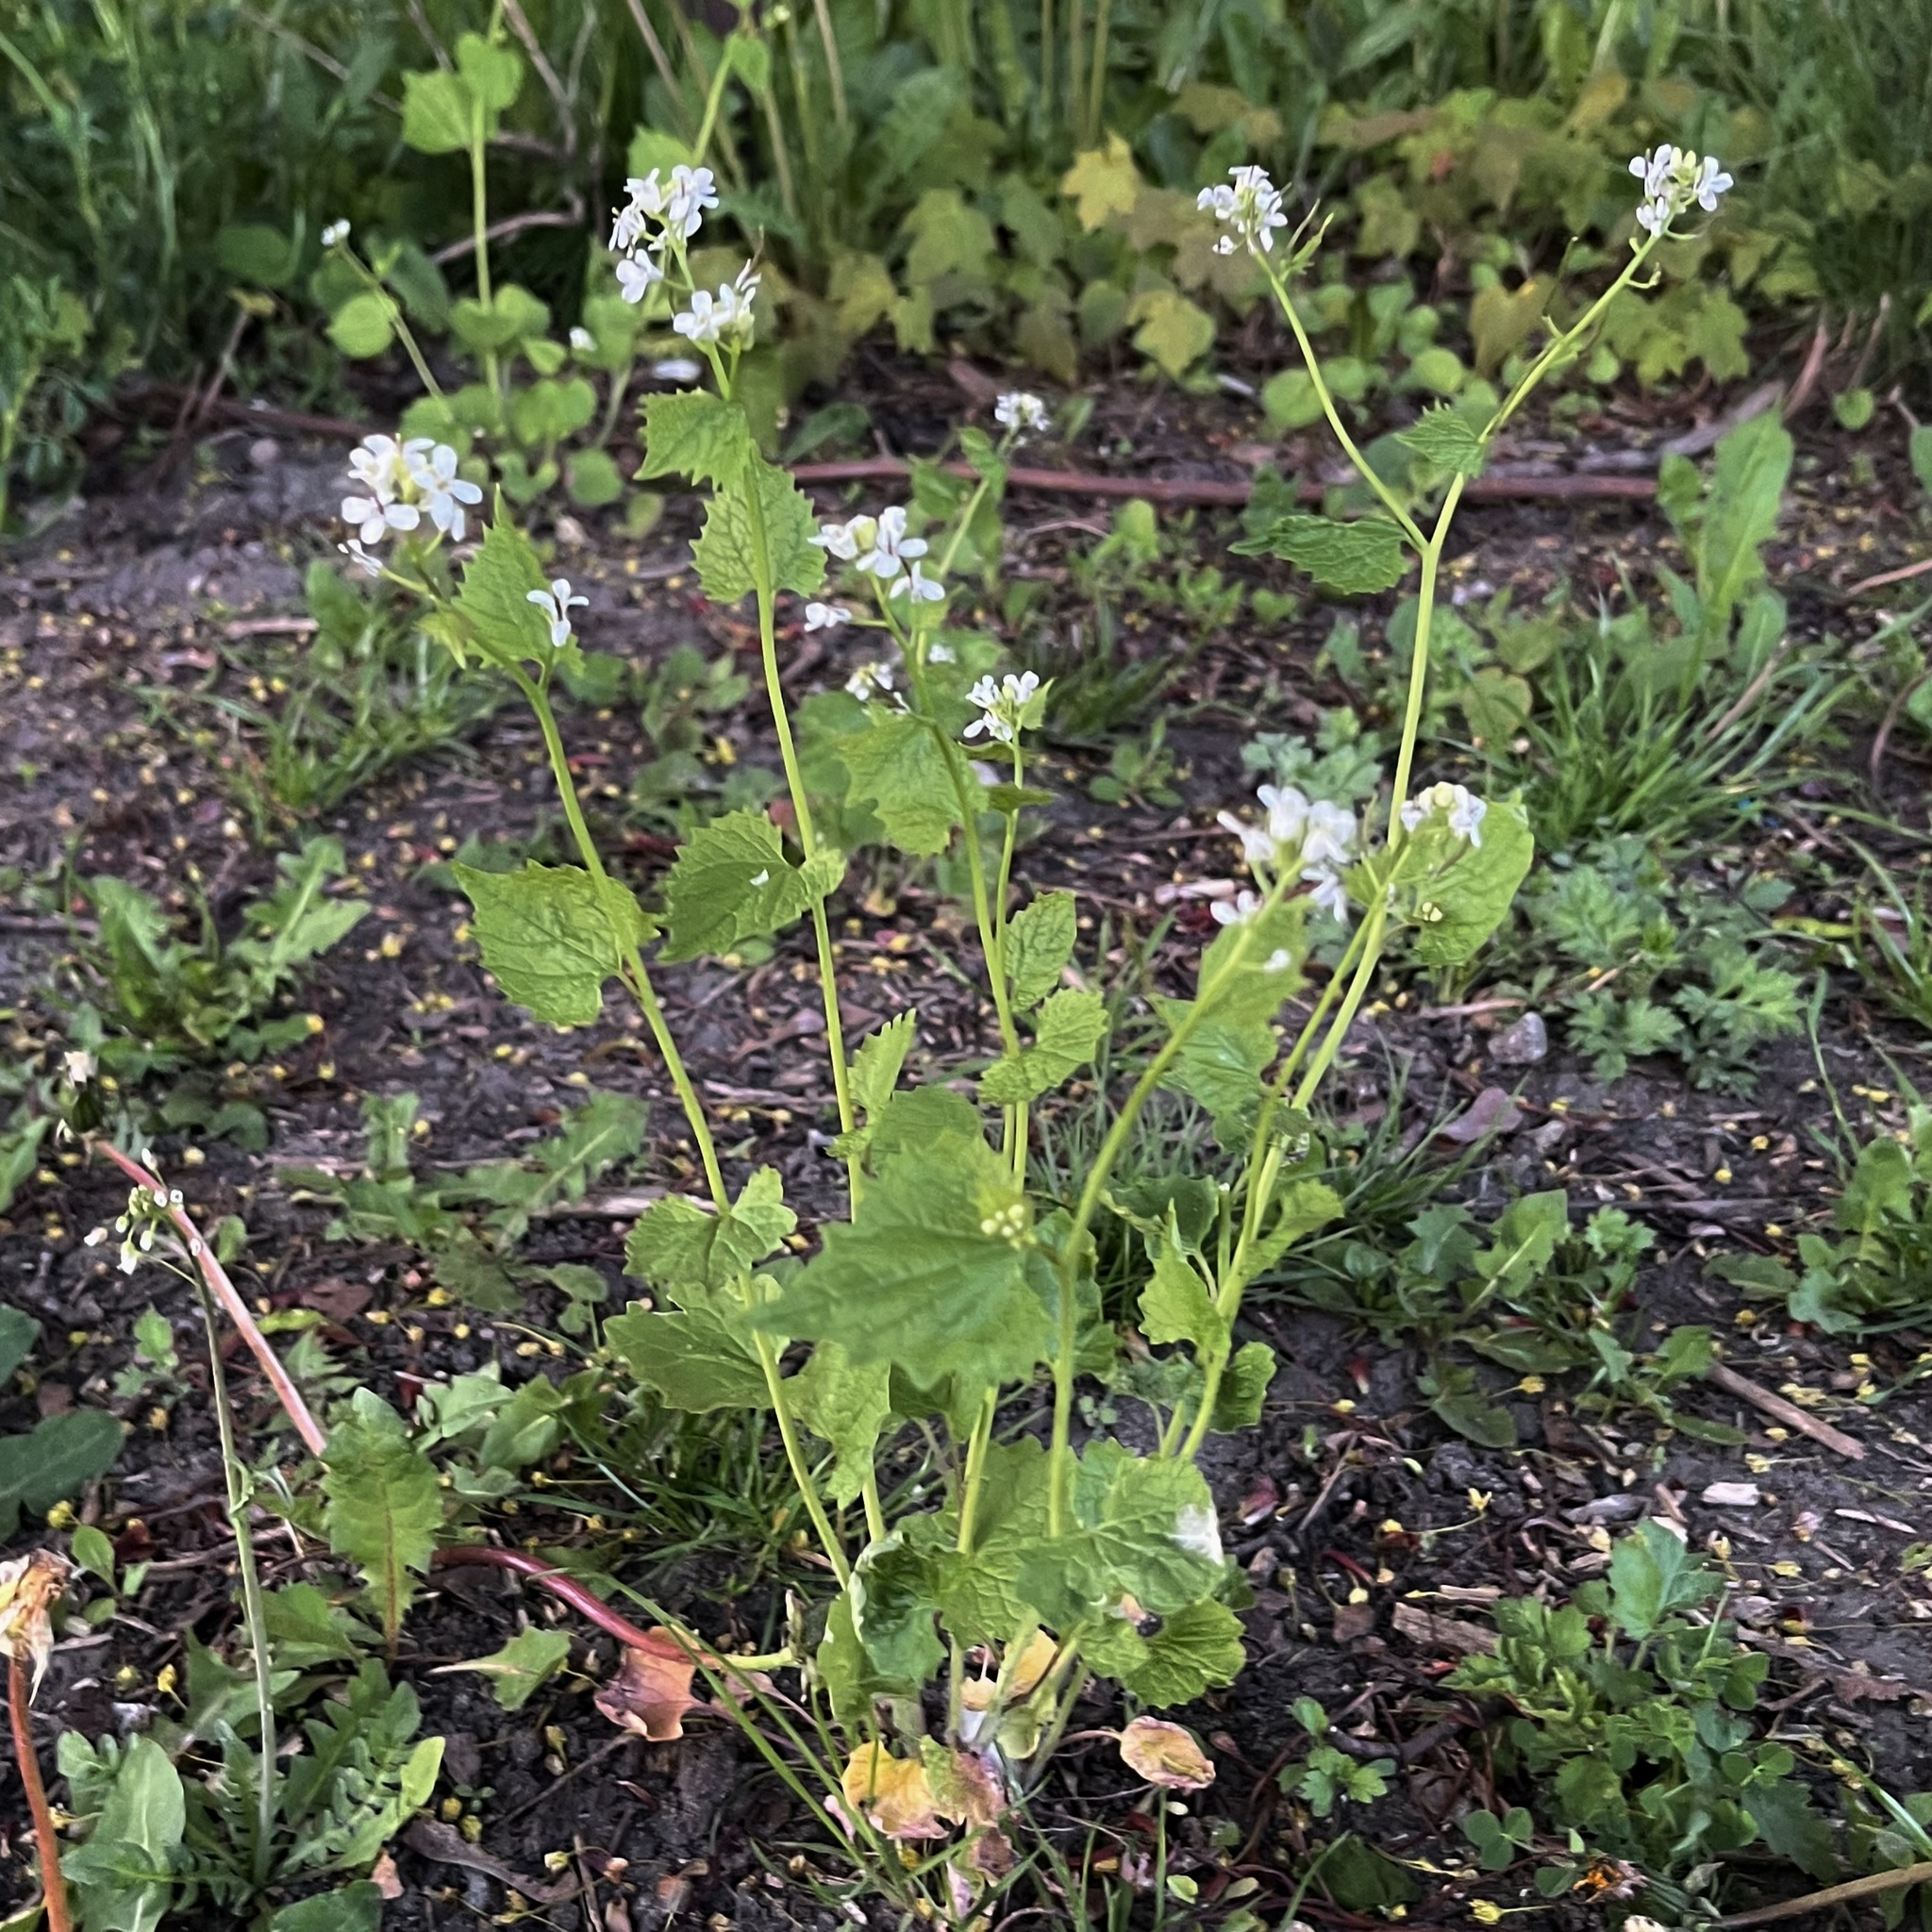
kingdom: Plantae
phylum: Tracheophyta
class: Magnoliopsida
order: Brassicales
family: Brassicaceae
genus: Alliaria
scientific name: Alliaria petiolata
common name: Garlic mustard
